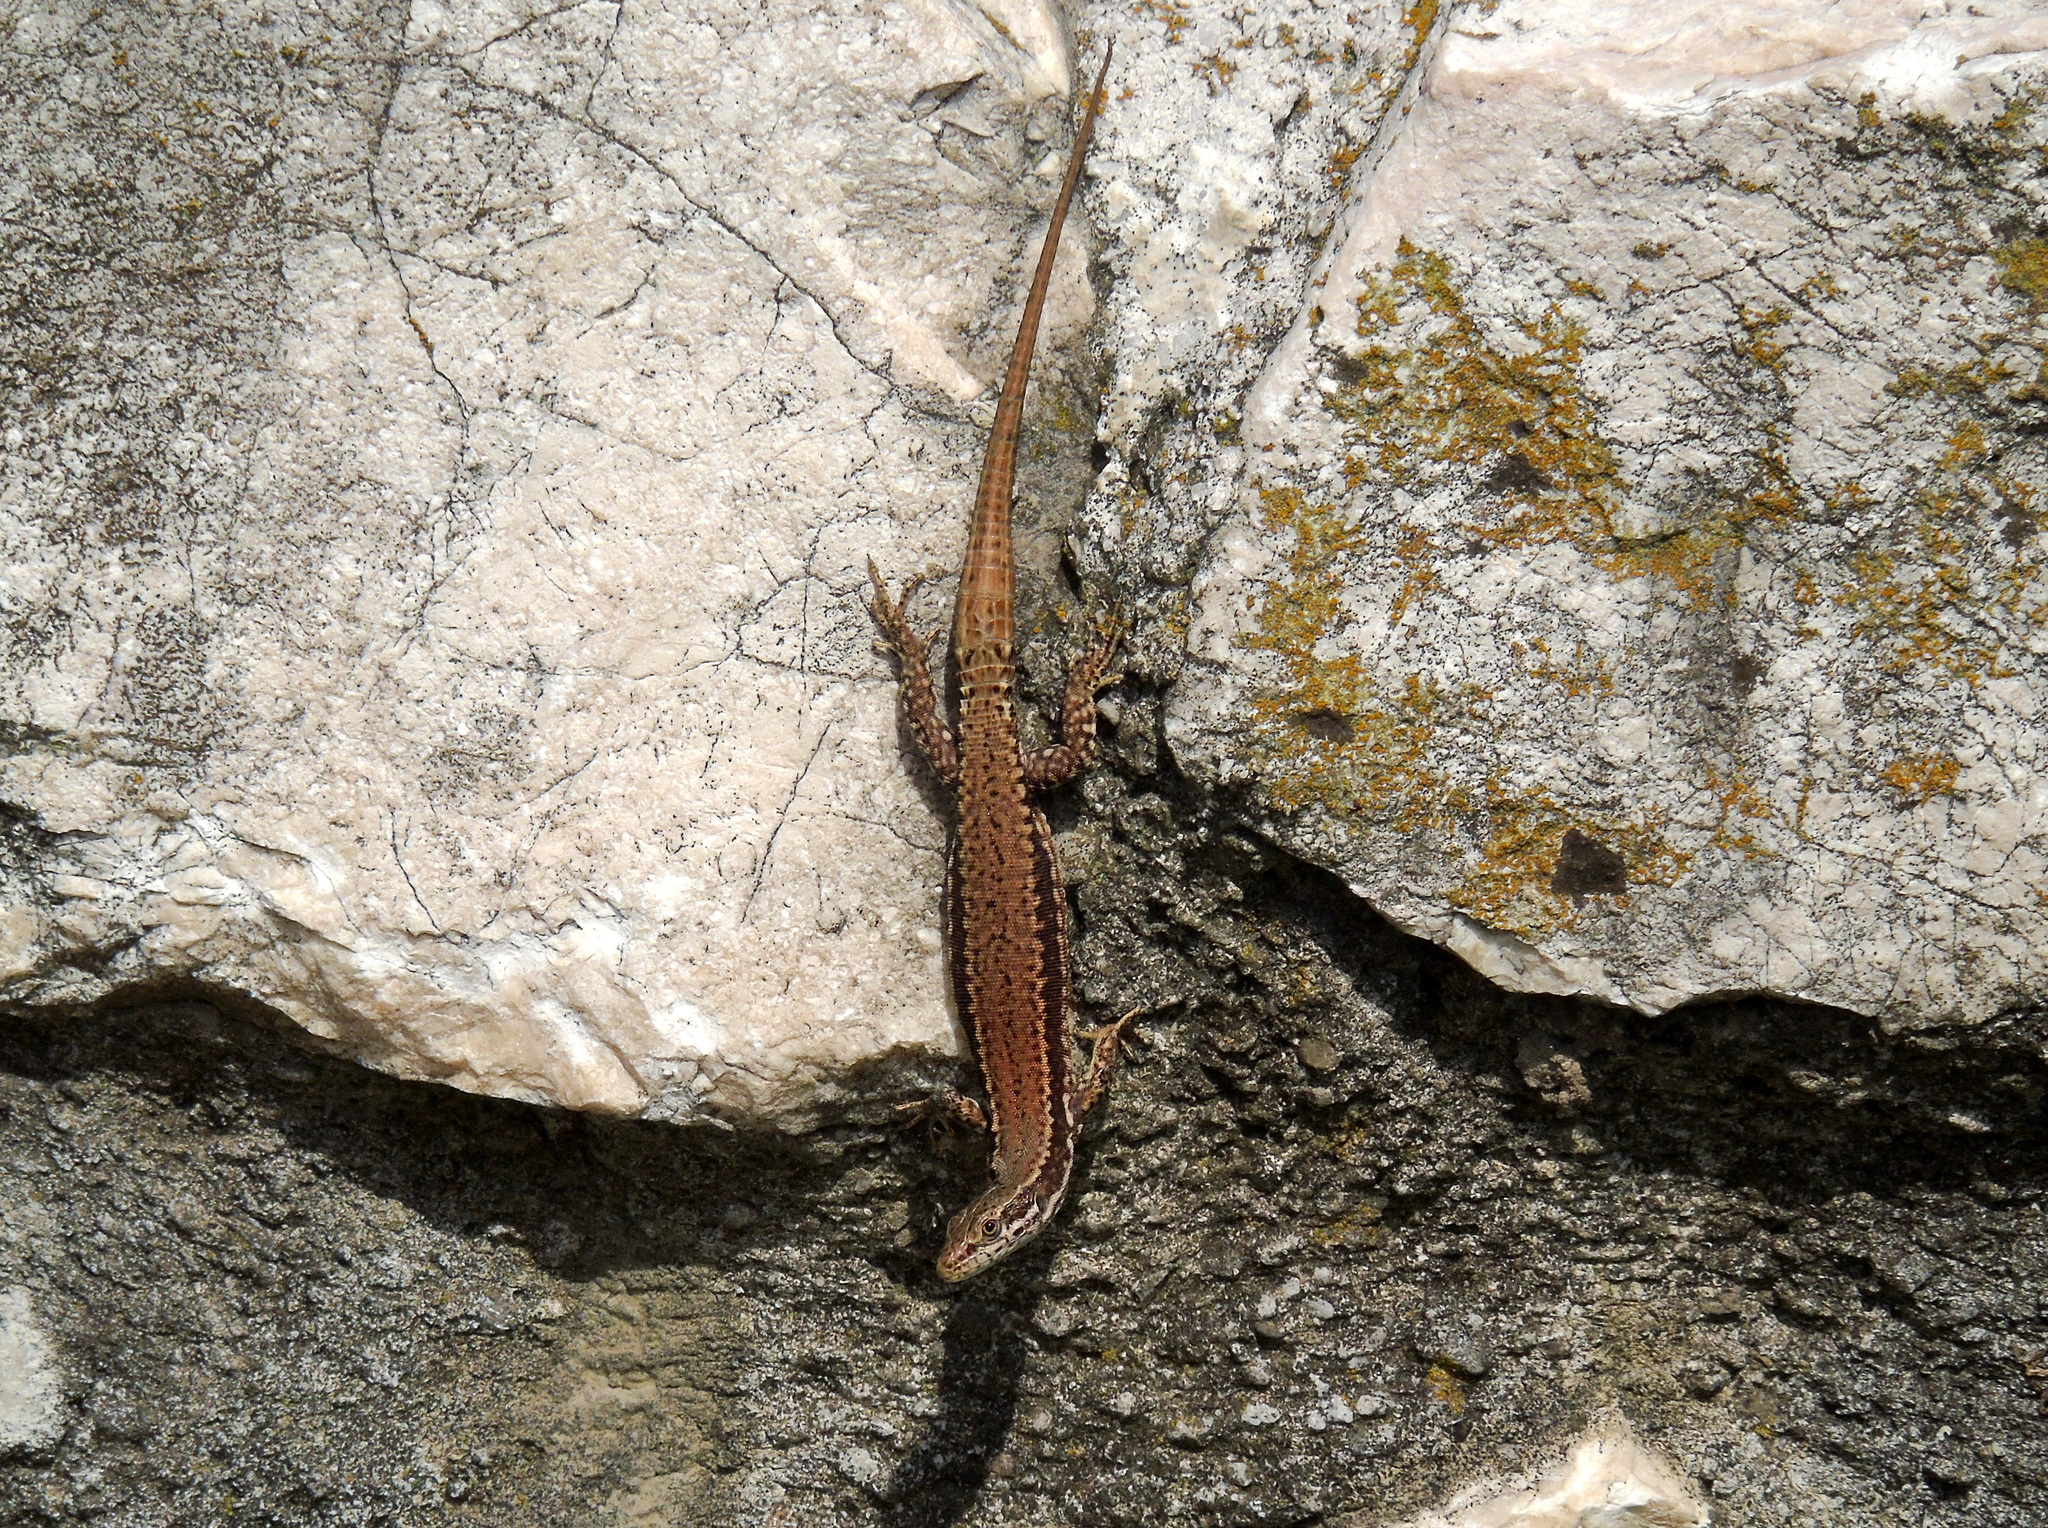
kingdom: Animalia
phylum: Chordata
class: Squamata
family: Lacertidae
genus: Podarcis
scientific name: Podarcis muralis
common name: Common wall lizard
